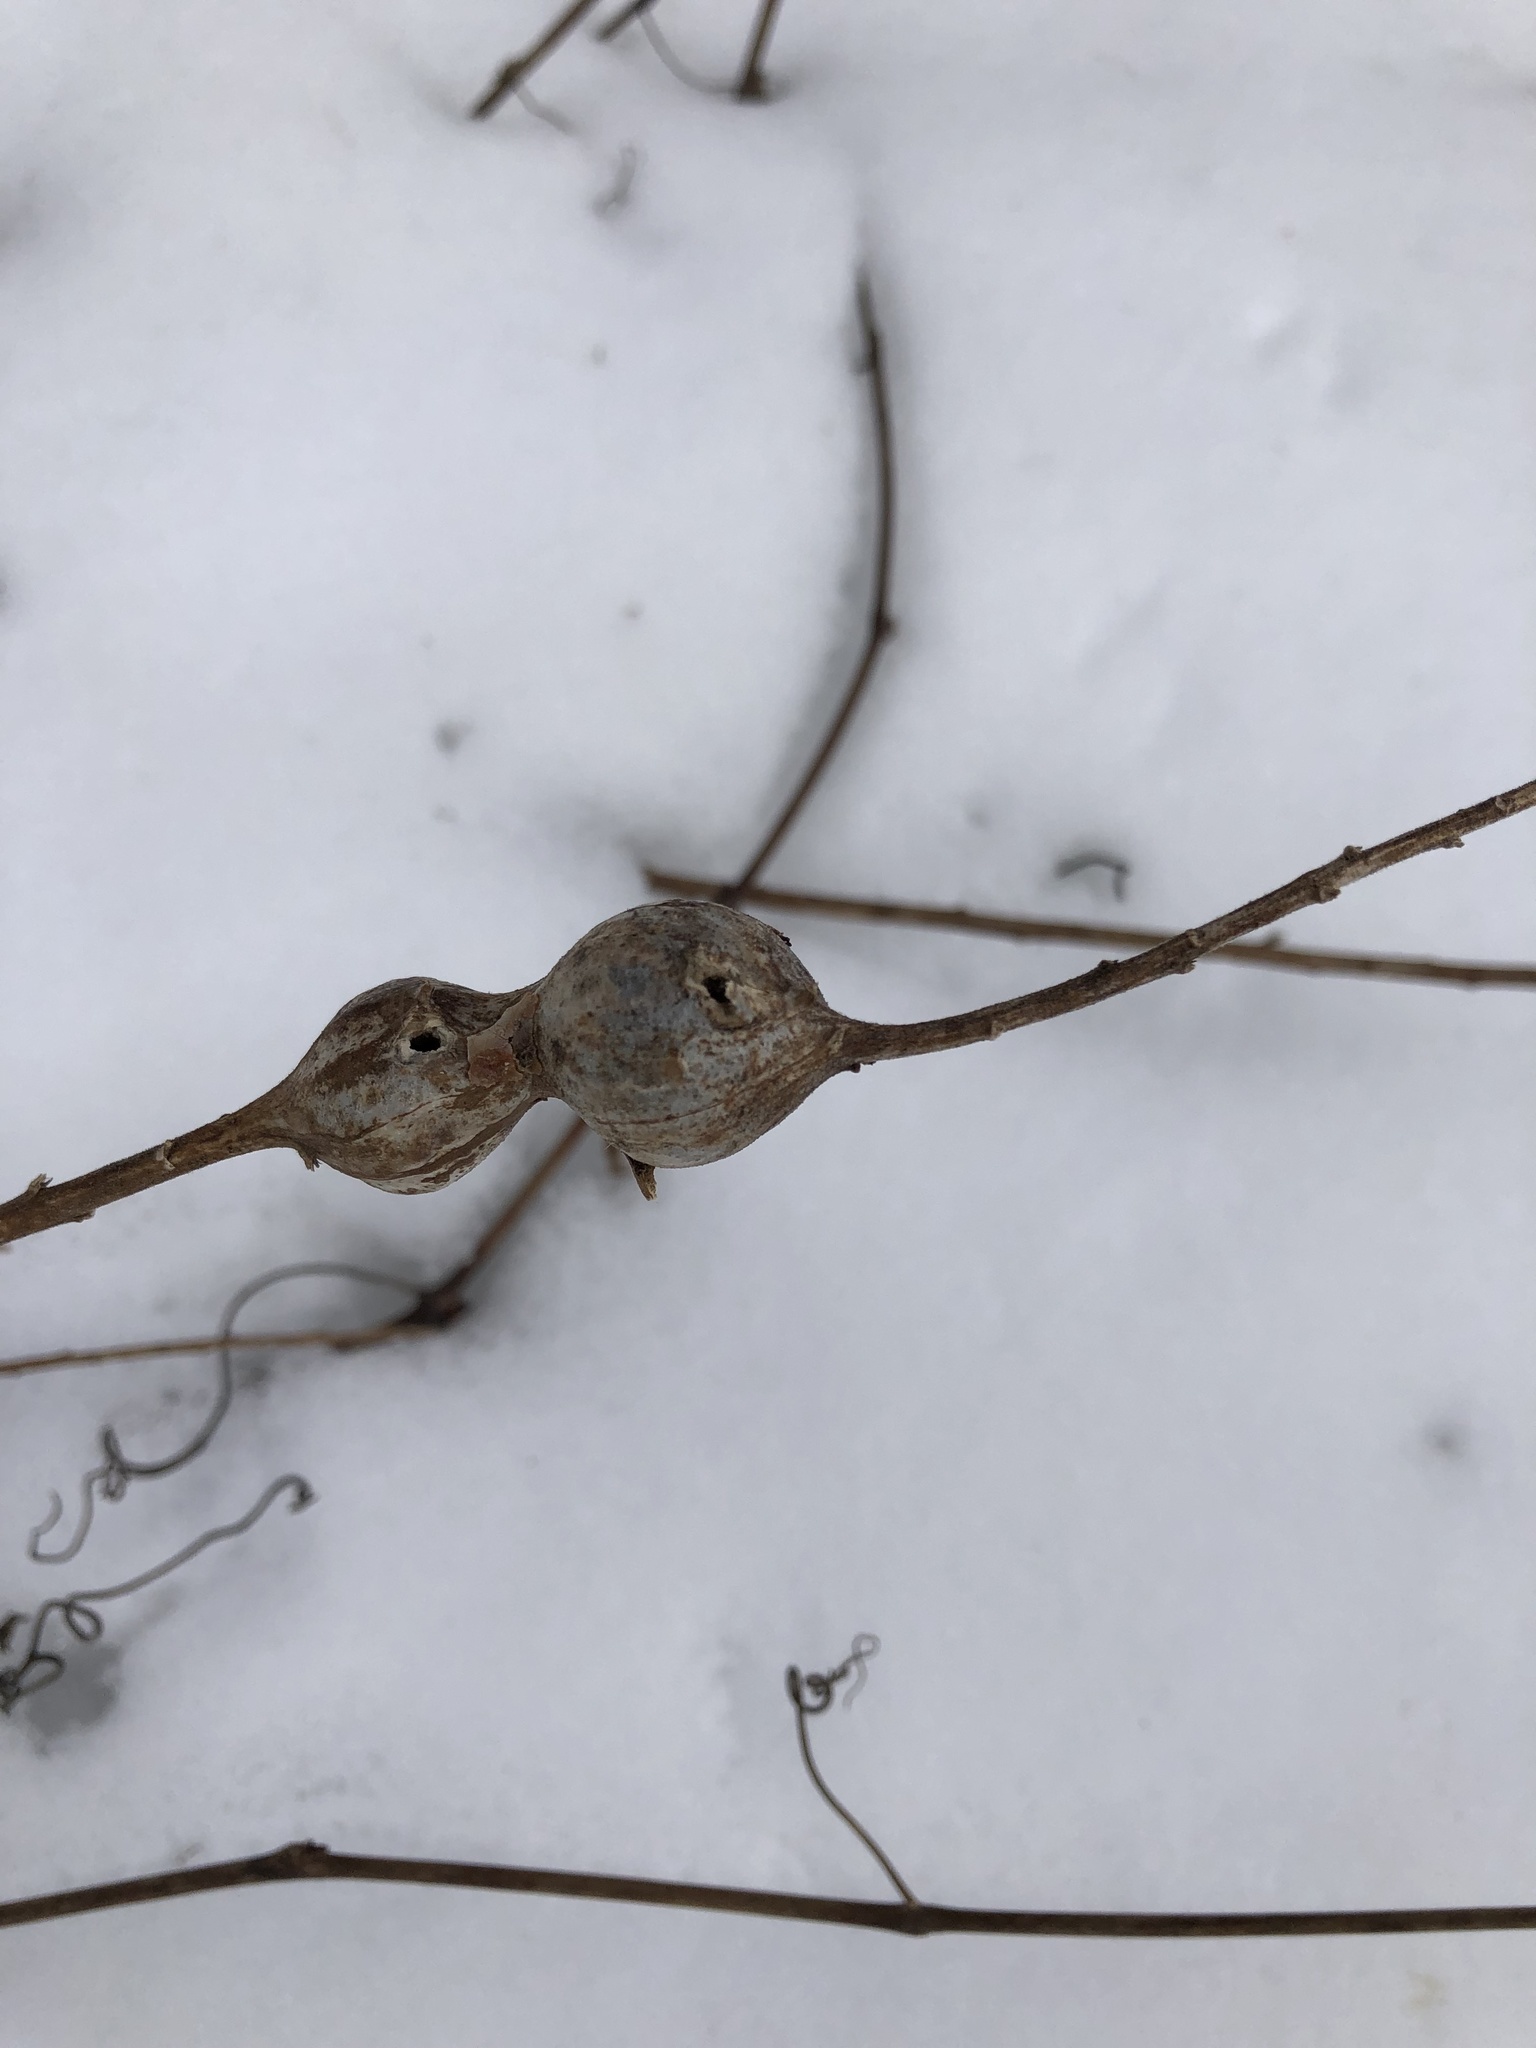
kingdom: Animalia
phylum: Arthropoda
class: Insecta
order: Diptera
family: Tephritidae
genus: Eurosta
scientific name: Eurosta solidaginis
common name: Goldenrod gall fly
